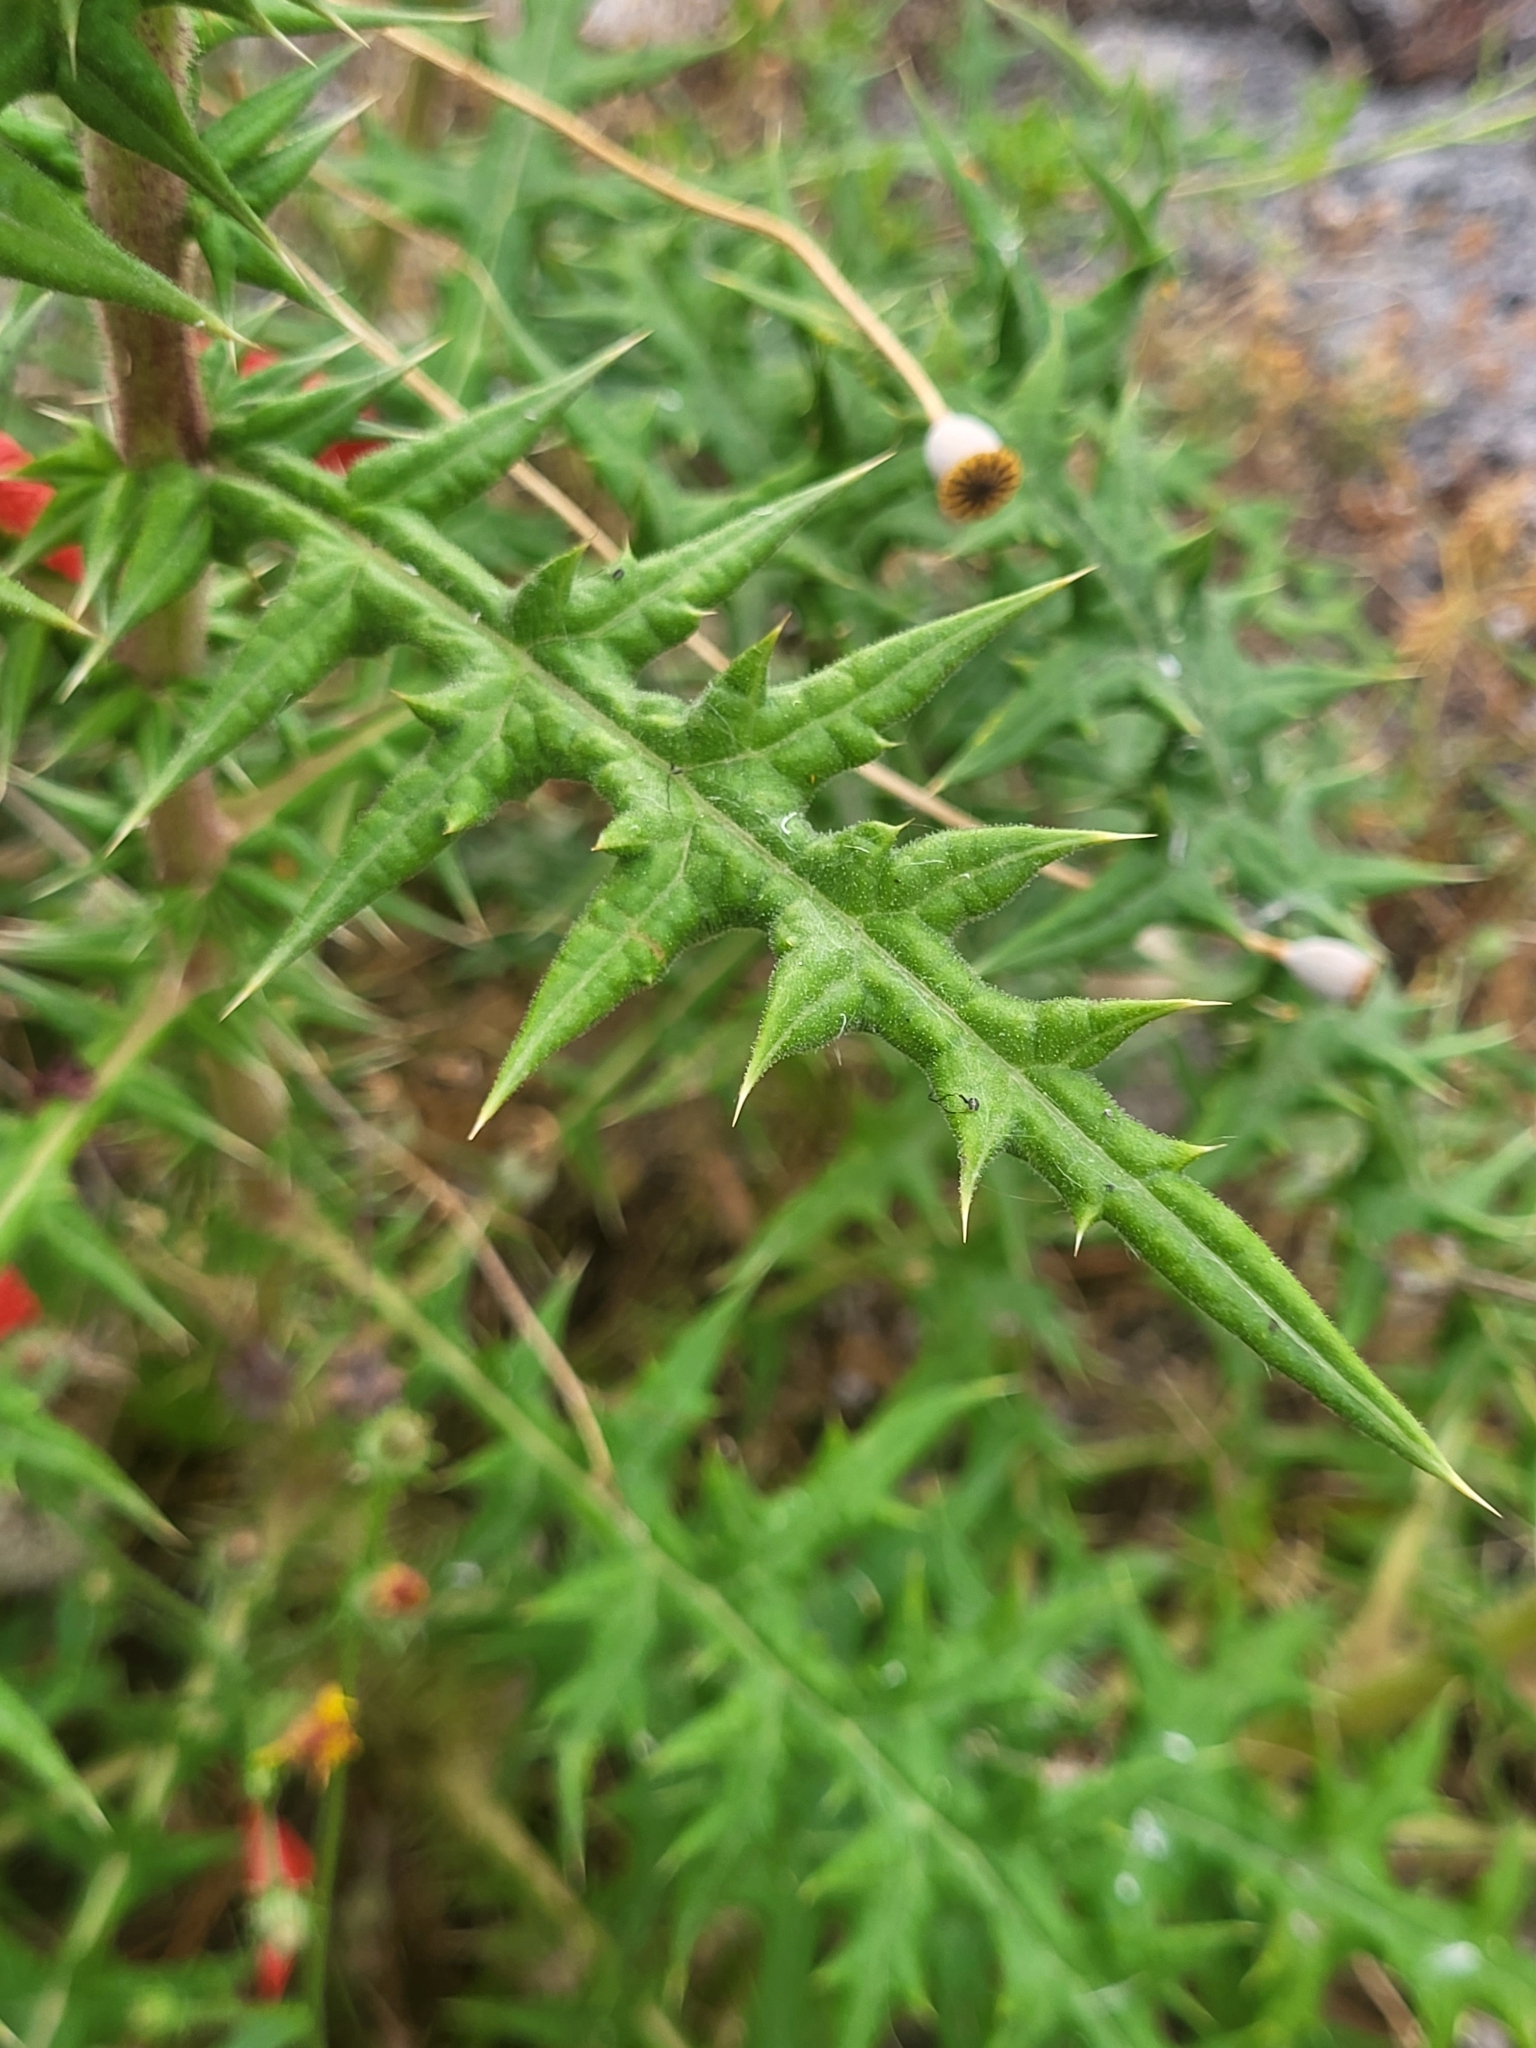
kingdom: Plantae
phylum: Tracheophyta
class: Magnoliopsida
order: Asterales
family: Asteraceae
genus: Echinops
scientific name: Echinops spinosissimus
